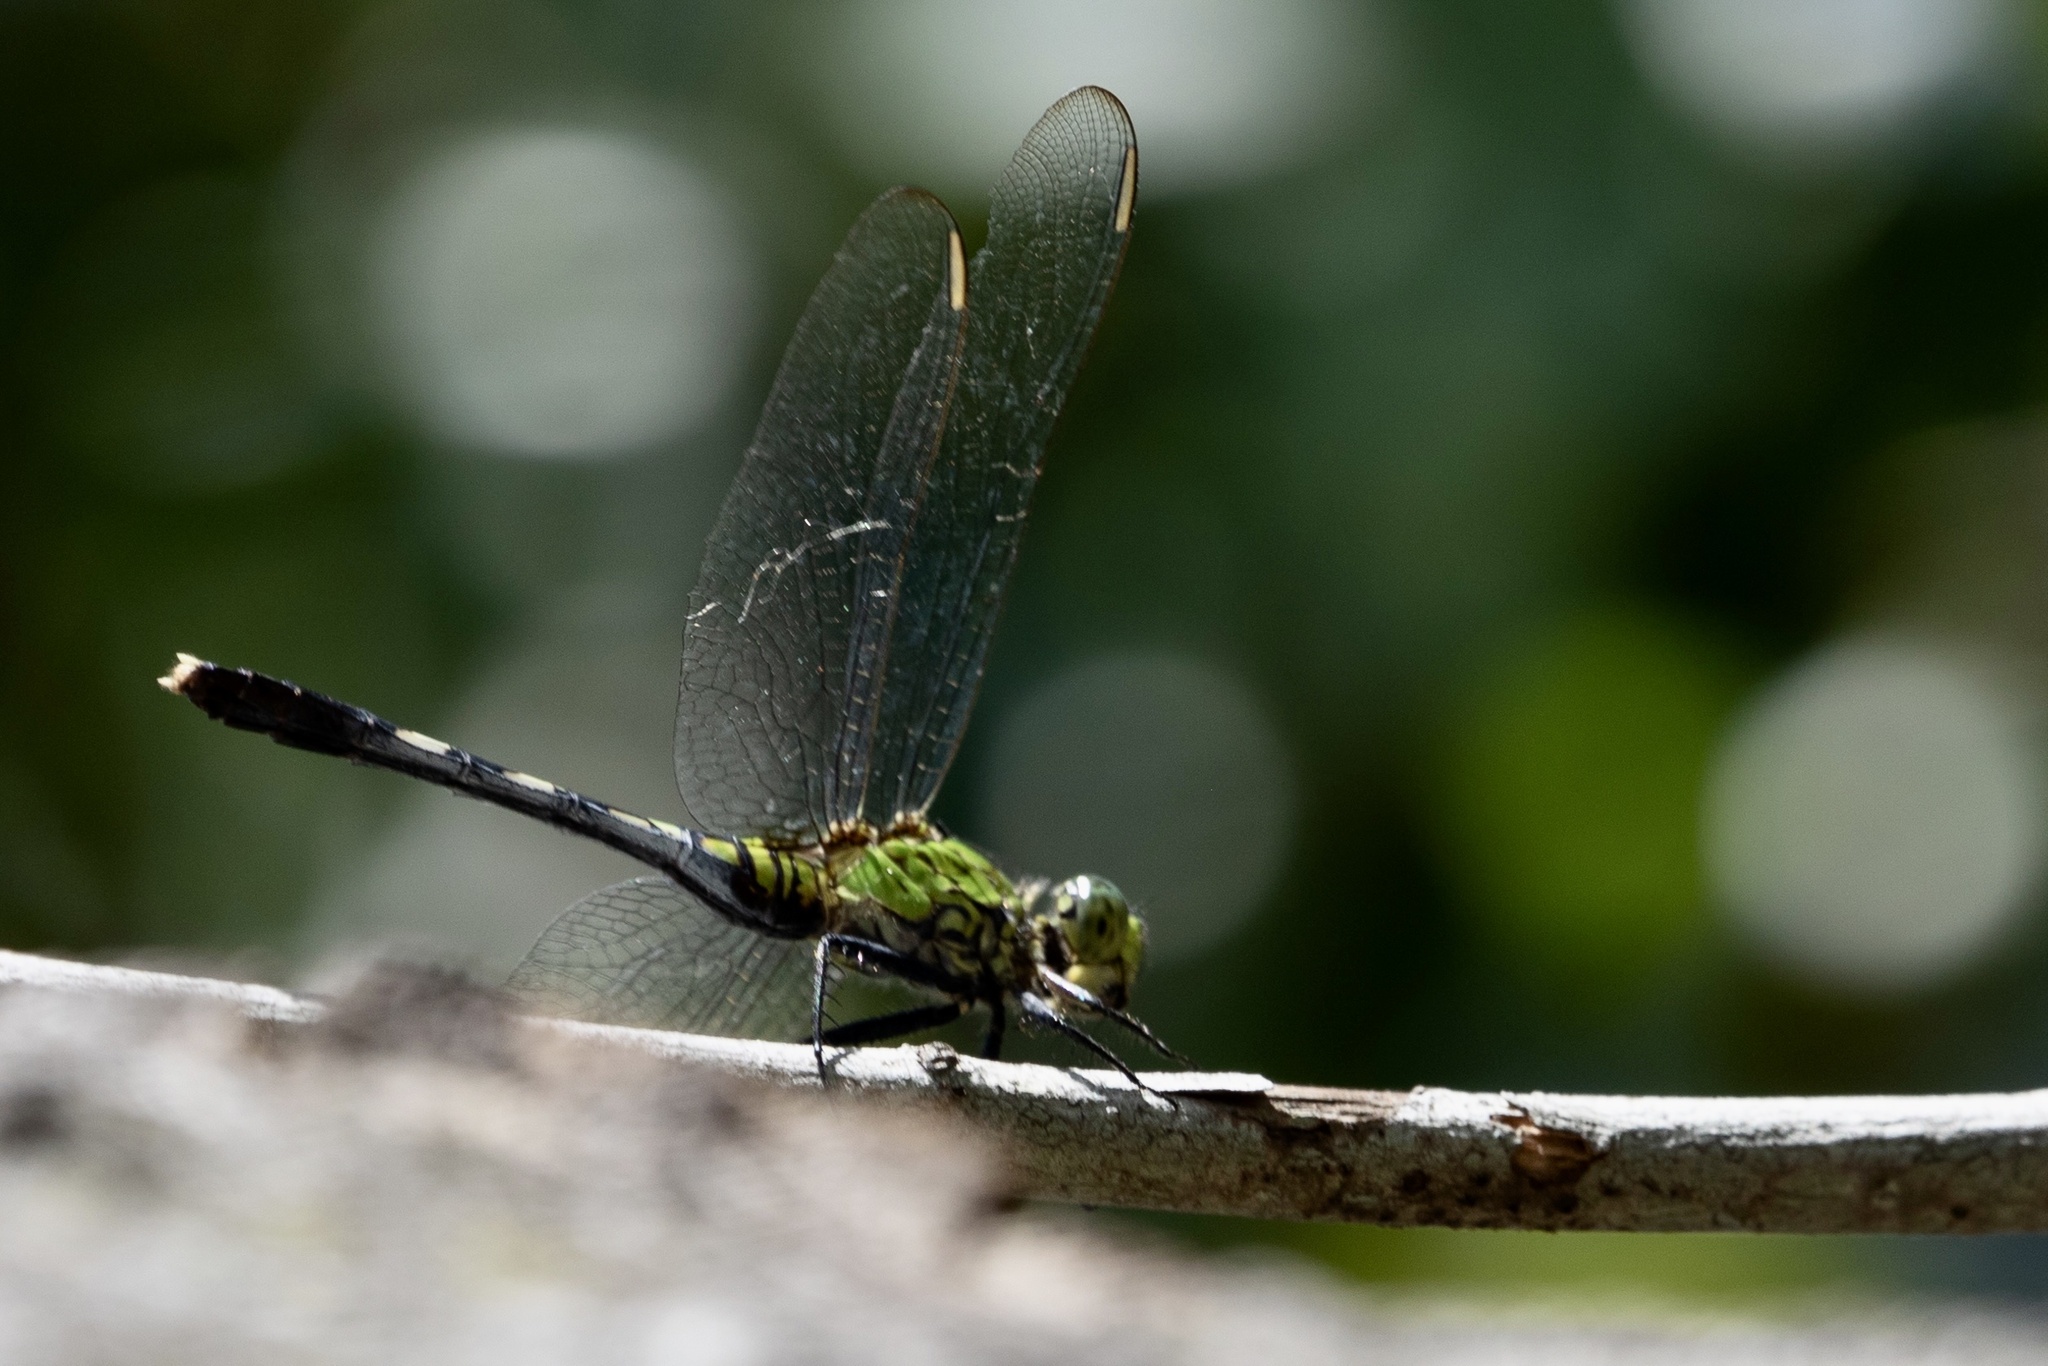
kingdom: Animalia
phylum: Arthropoda
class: Insecta
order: Odonata
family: Libellulidae
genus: Erythemis
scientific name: Erythemis simplicicollis
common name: Eastern pondhawk
